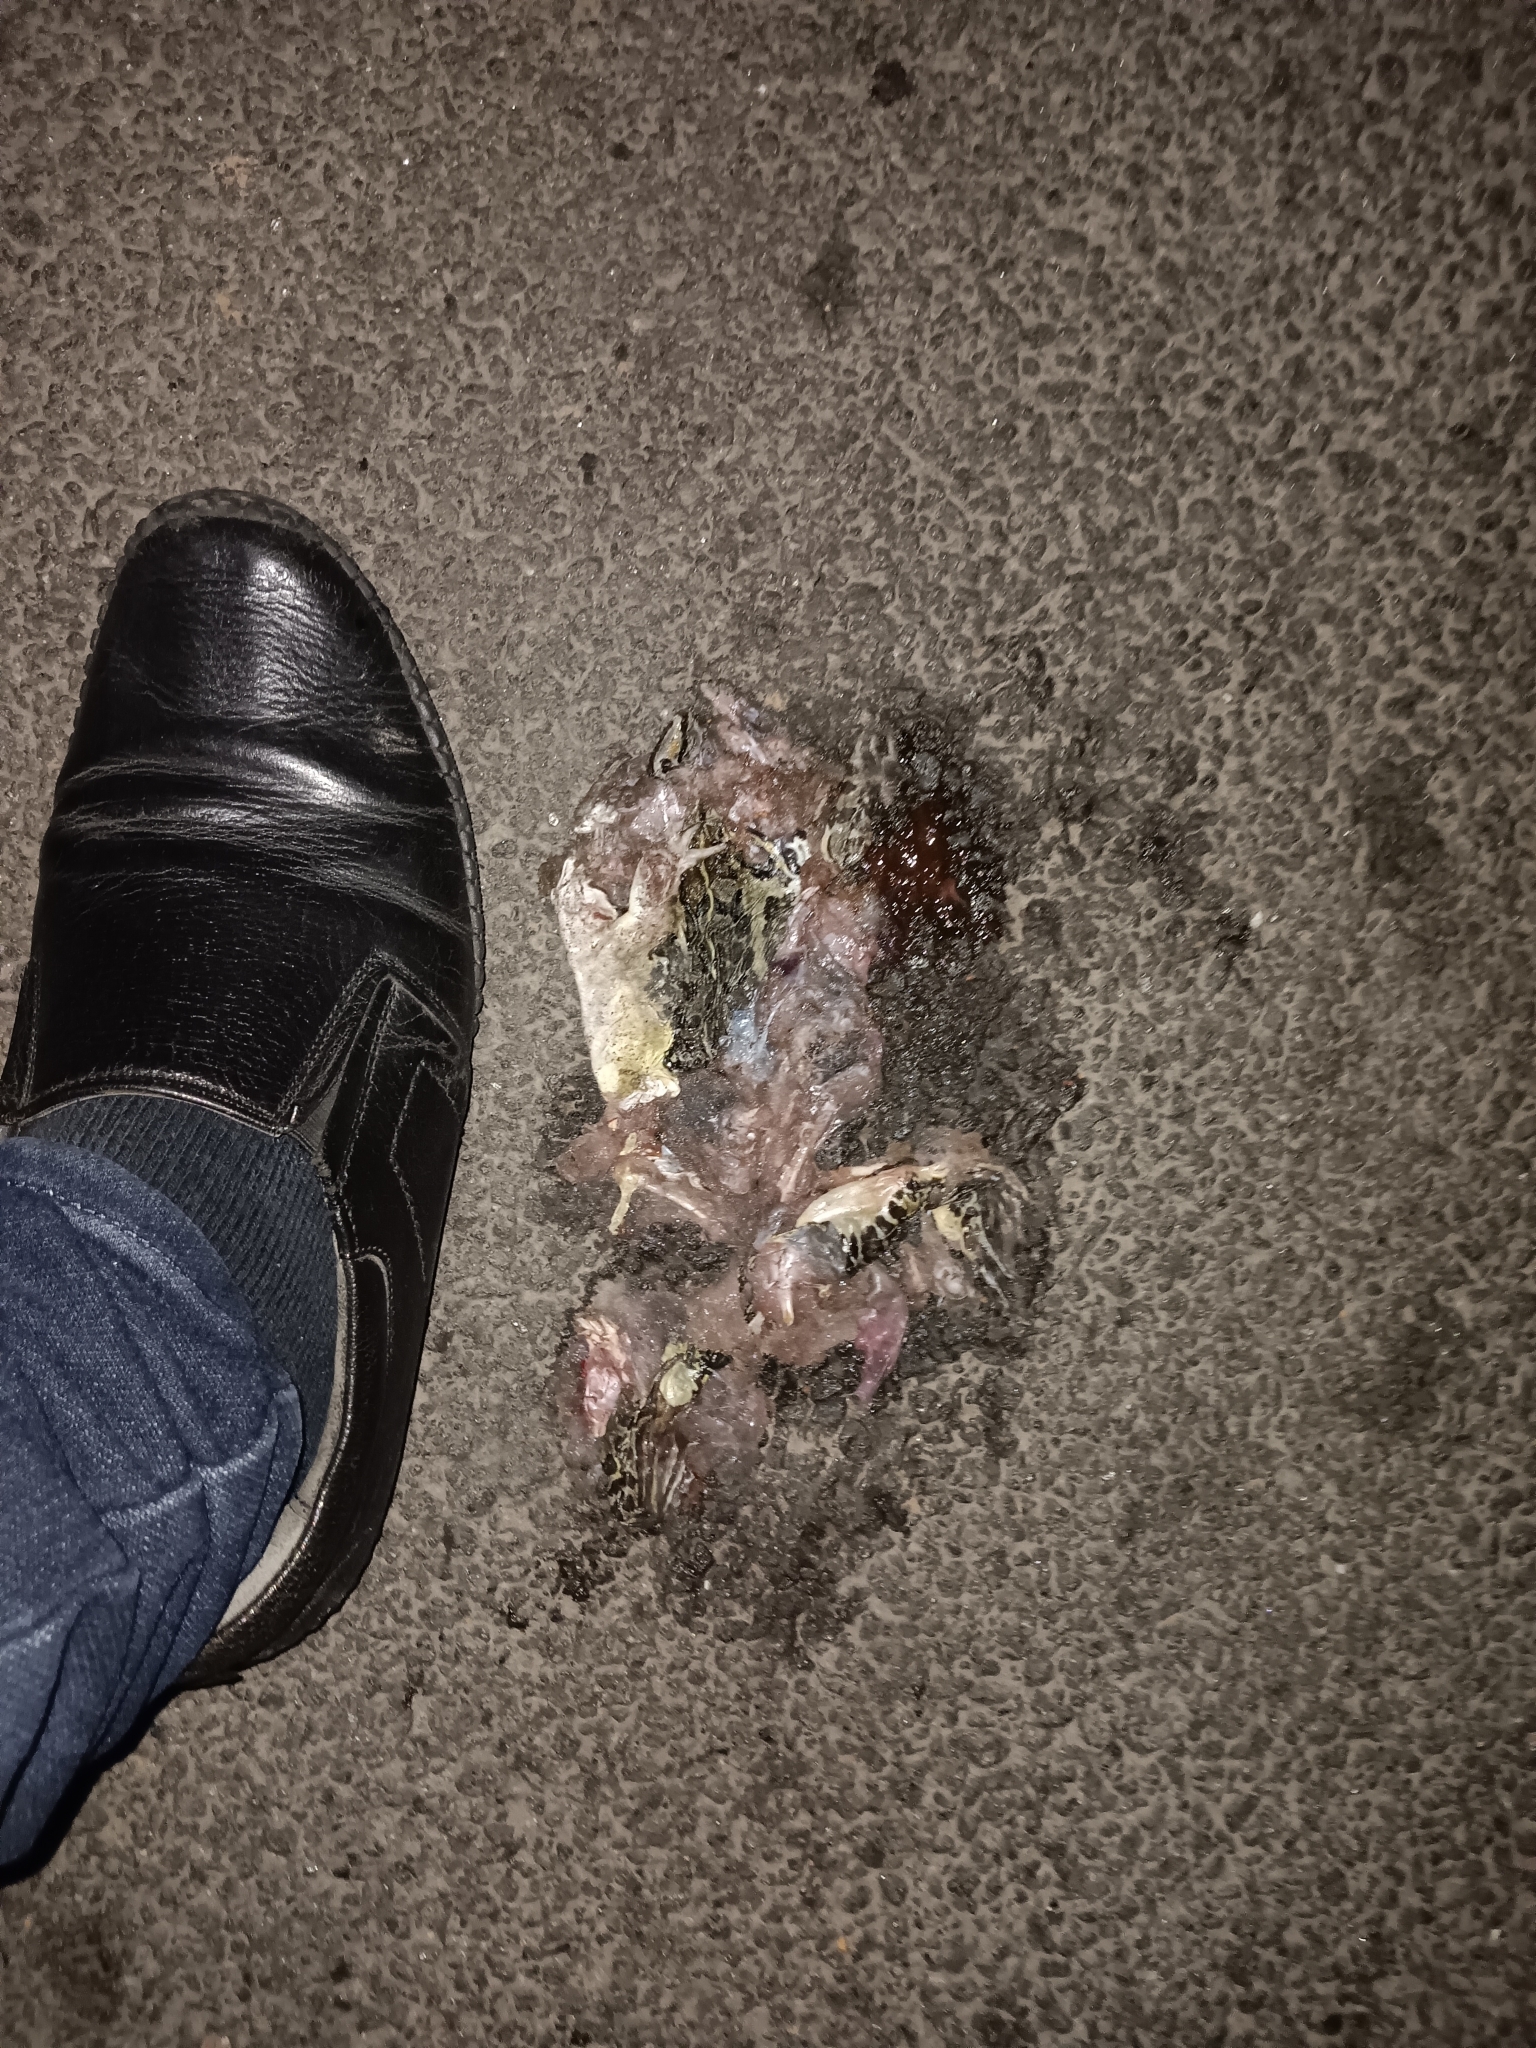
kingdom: Animalia
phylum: Chordata
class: Amphibia
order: Anura
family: Dicroglossidae
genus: Hoplobatrachus
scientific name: Hoplobatrachus tigerinus
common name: Indian bullfrog
